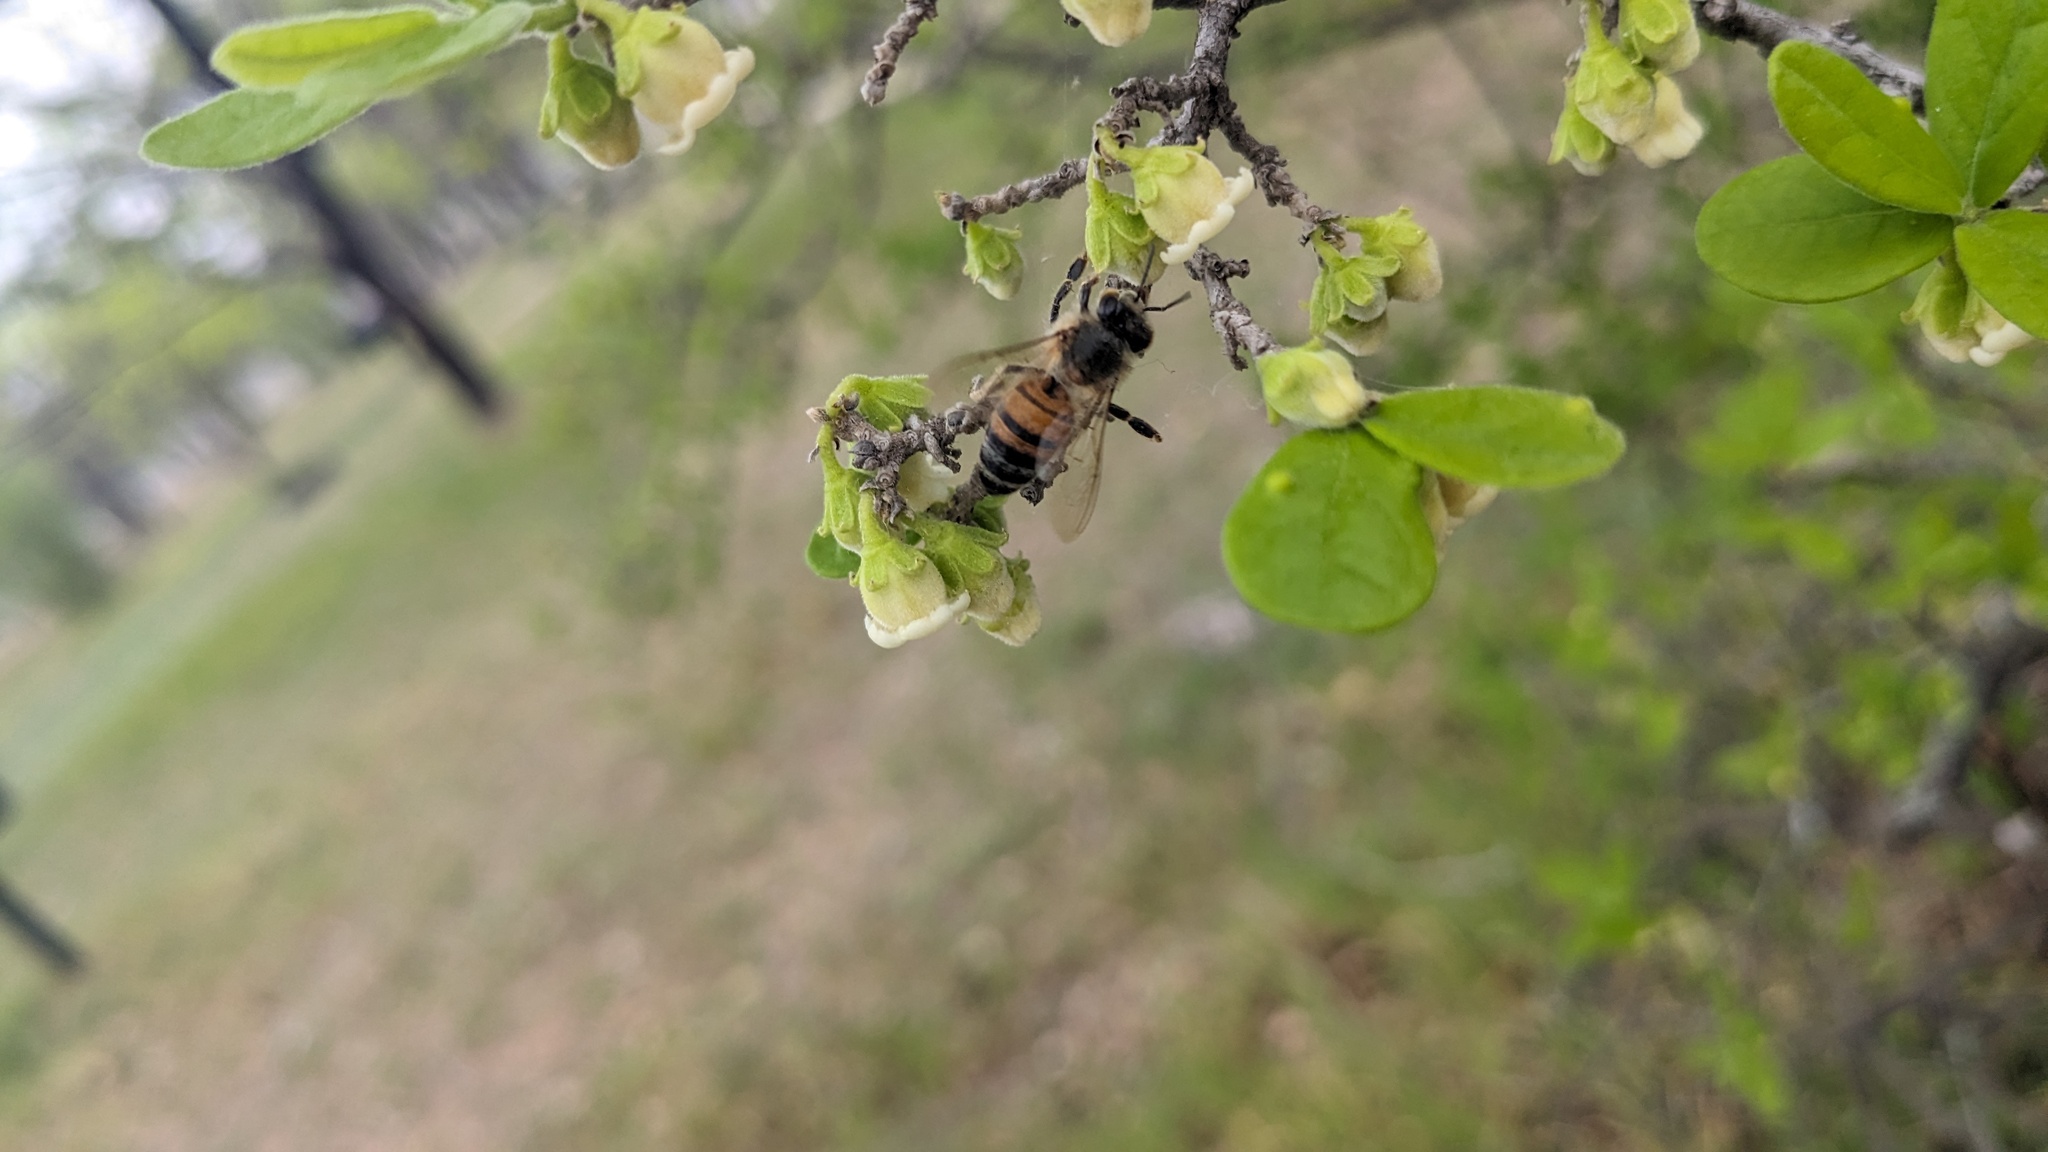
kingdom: Animalia
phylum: Arthropoda
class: Insecta
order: Hymenoptera
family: Apidae
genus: Apis
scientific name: Apis mellifera
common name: Honey bee
